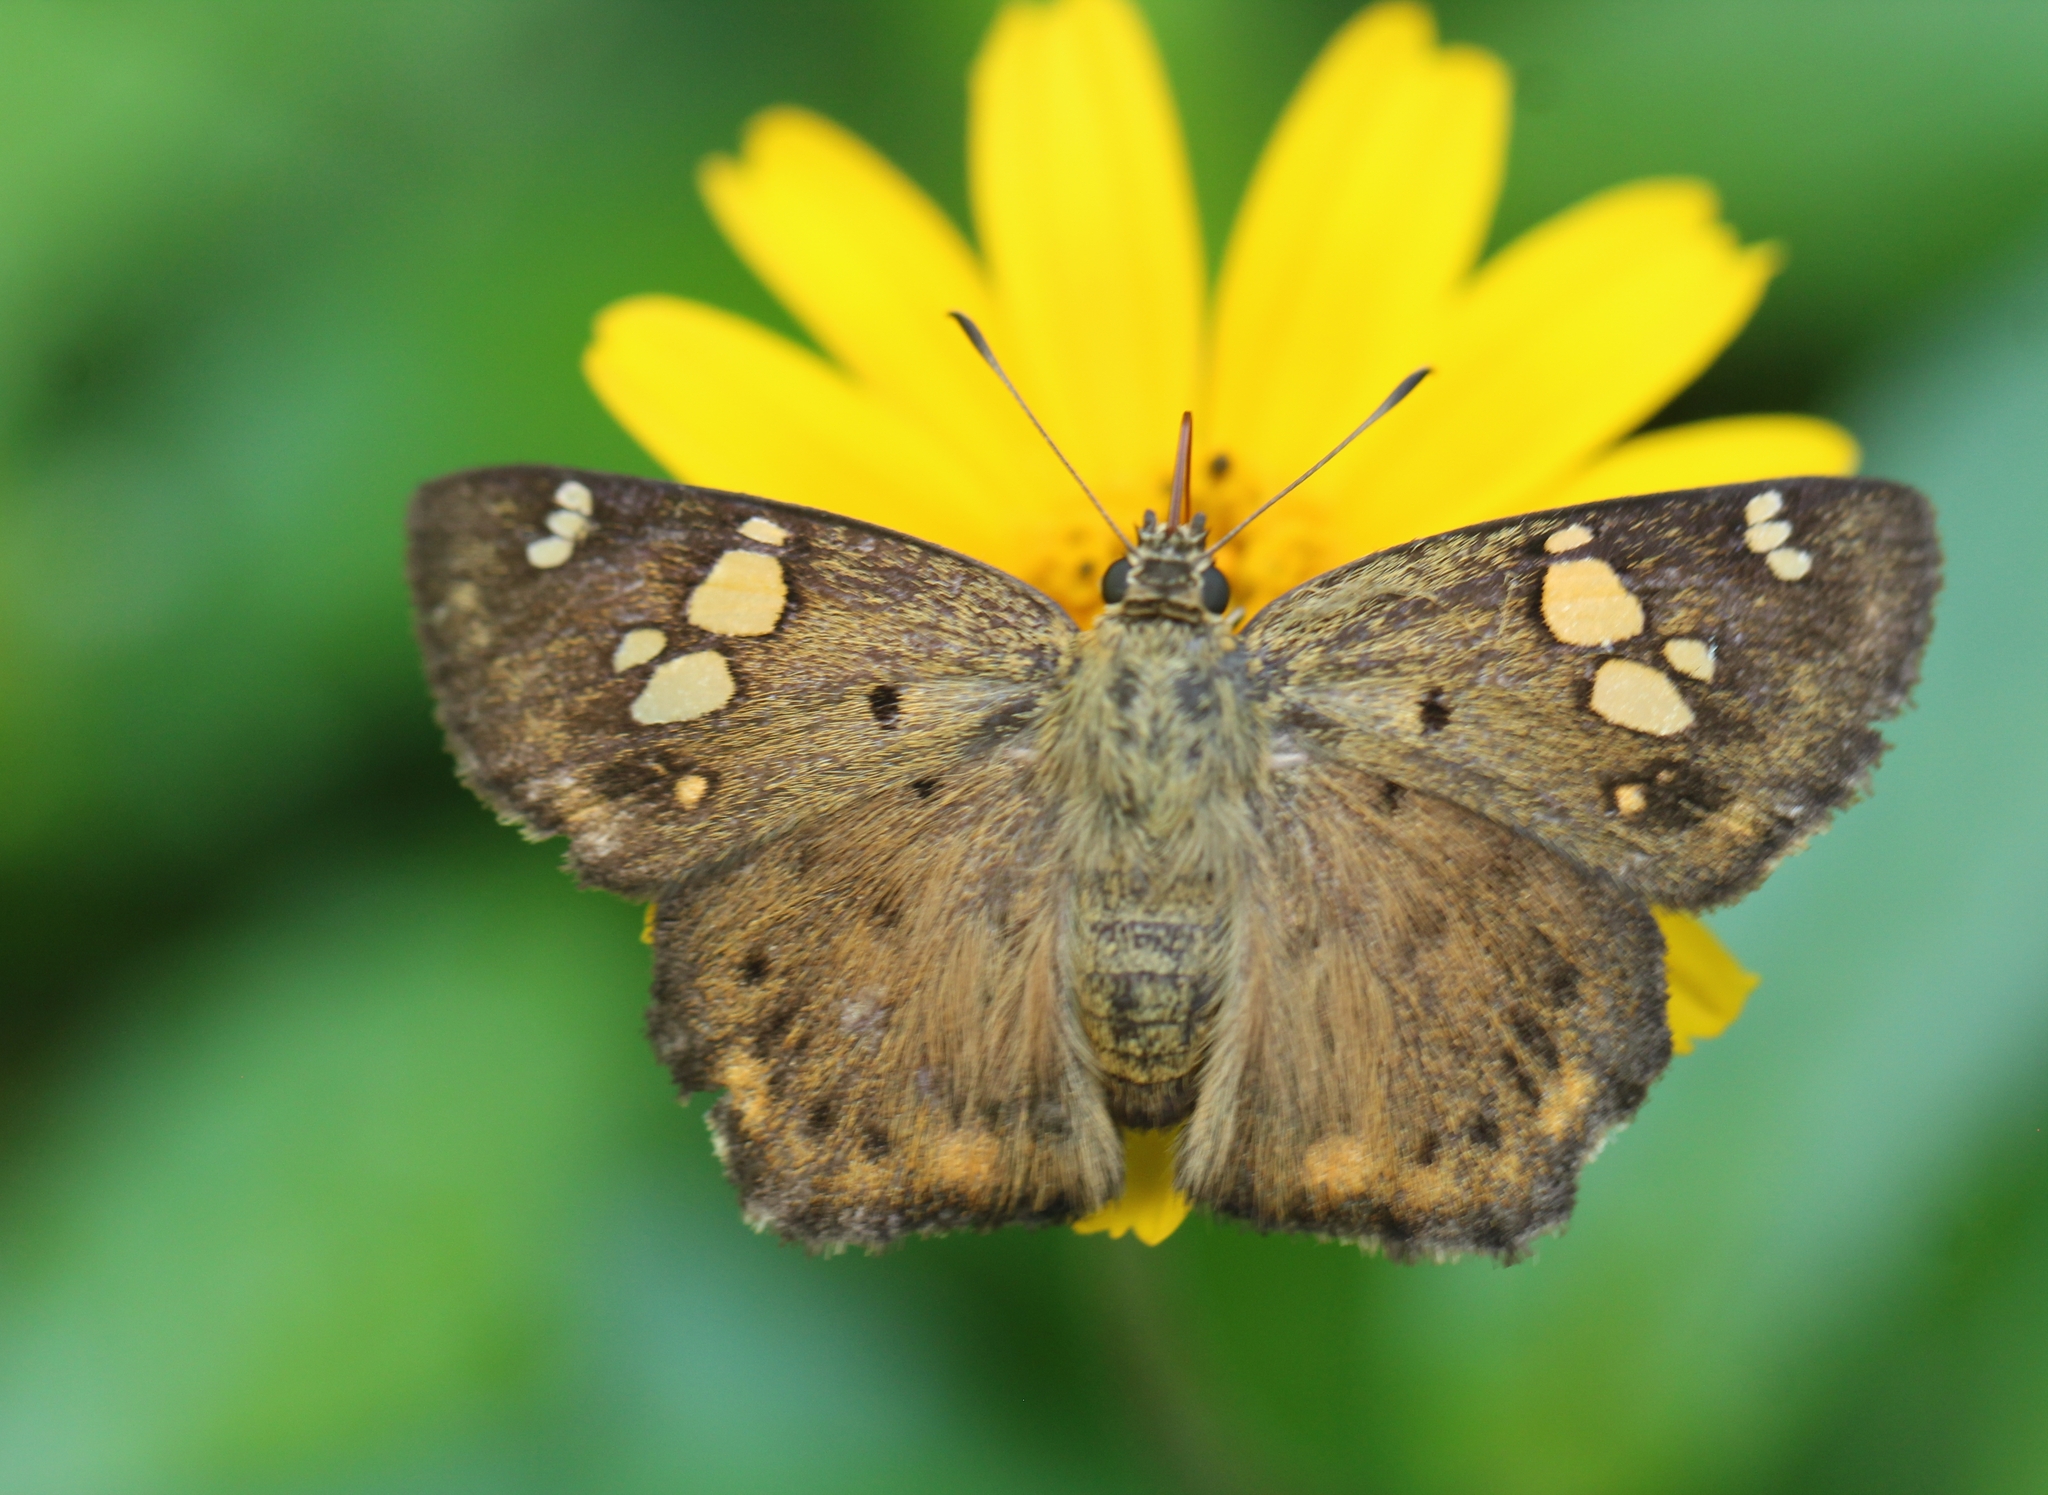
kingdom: Animalia
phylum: Arthropoda
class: Insecta
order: Lepidoptera
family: Hesperiidae
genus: Coladenia
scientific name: Coladenia
